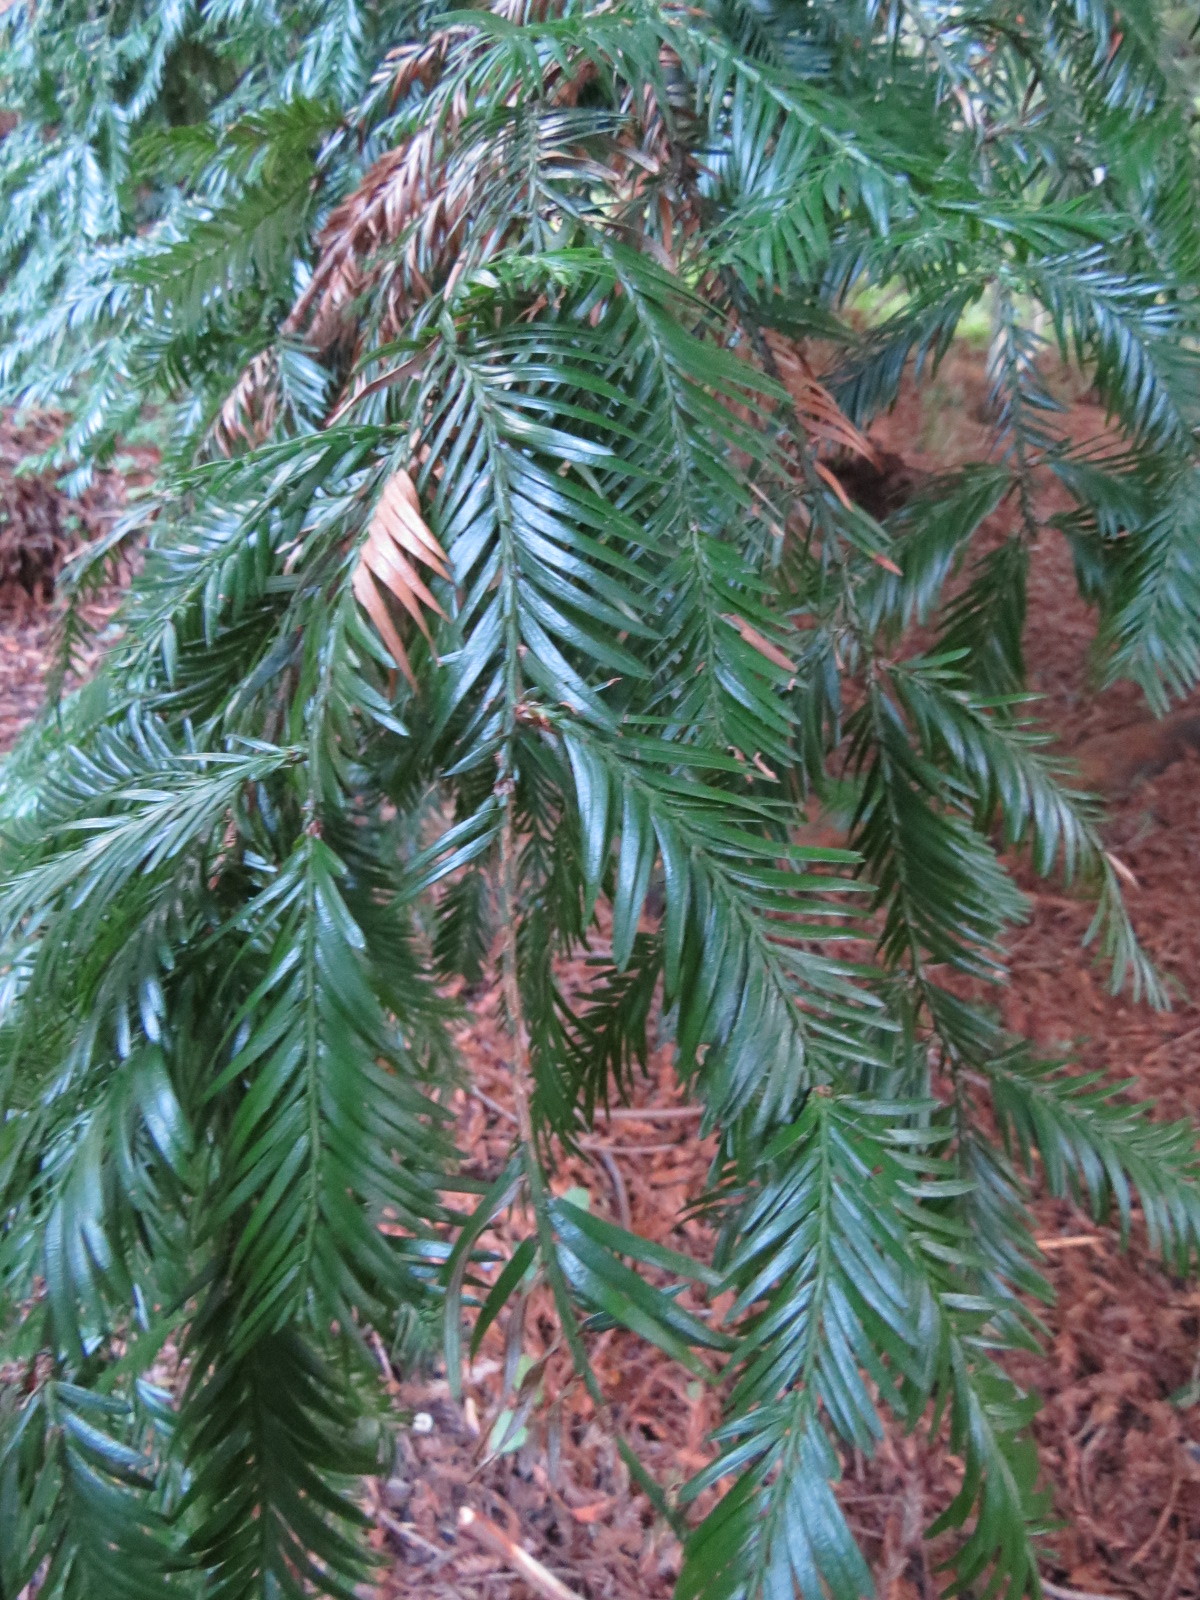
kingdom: Plantae
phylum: Tracheophyta
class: Pinopsida
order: Pinales
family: Cupressaceae
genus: Sequoia
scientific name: Sequoia sempervirens
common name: Coast redwood
